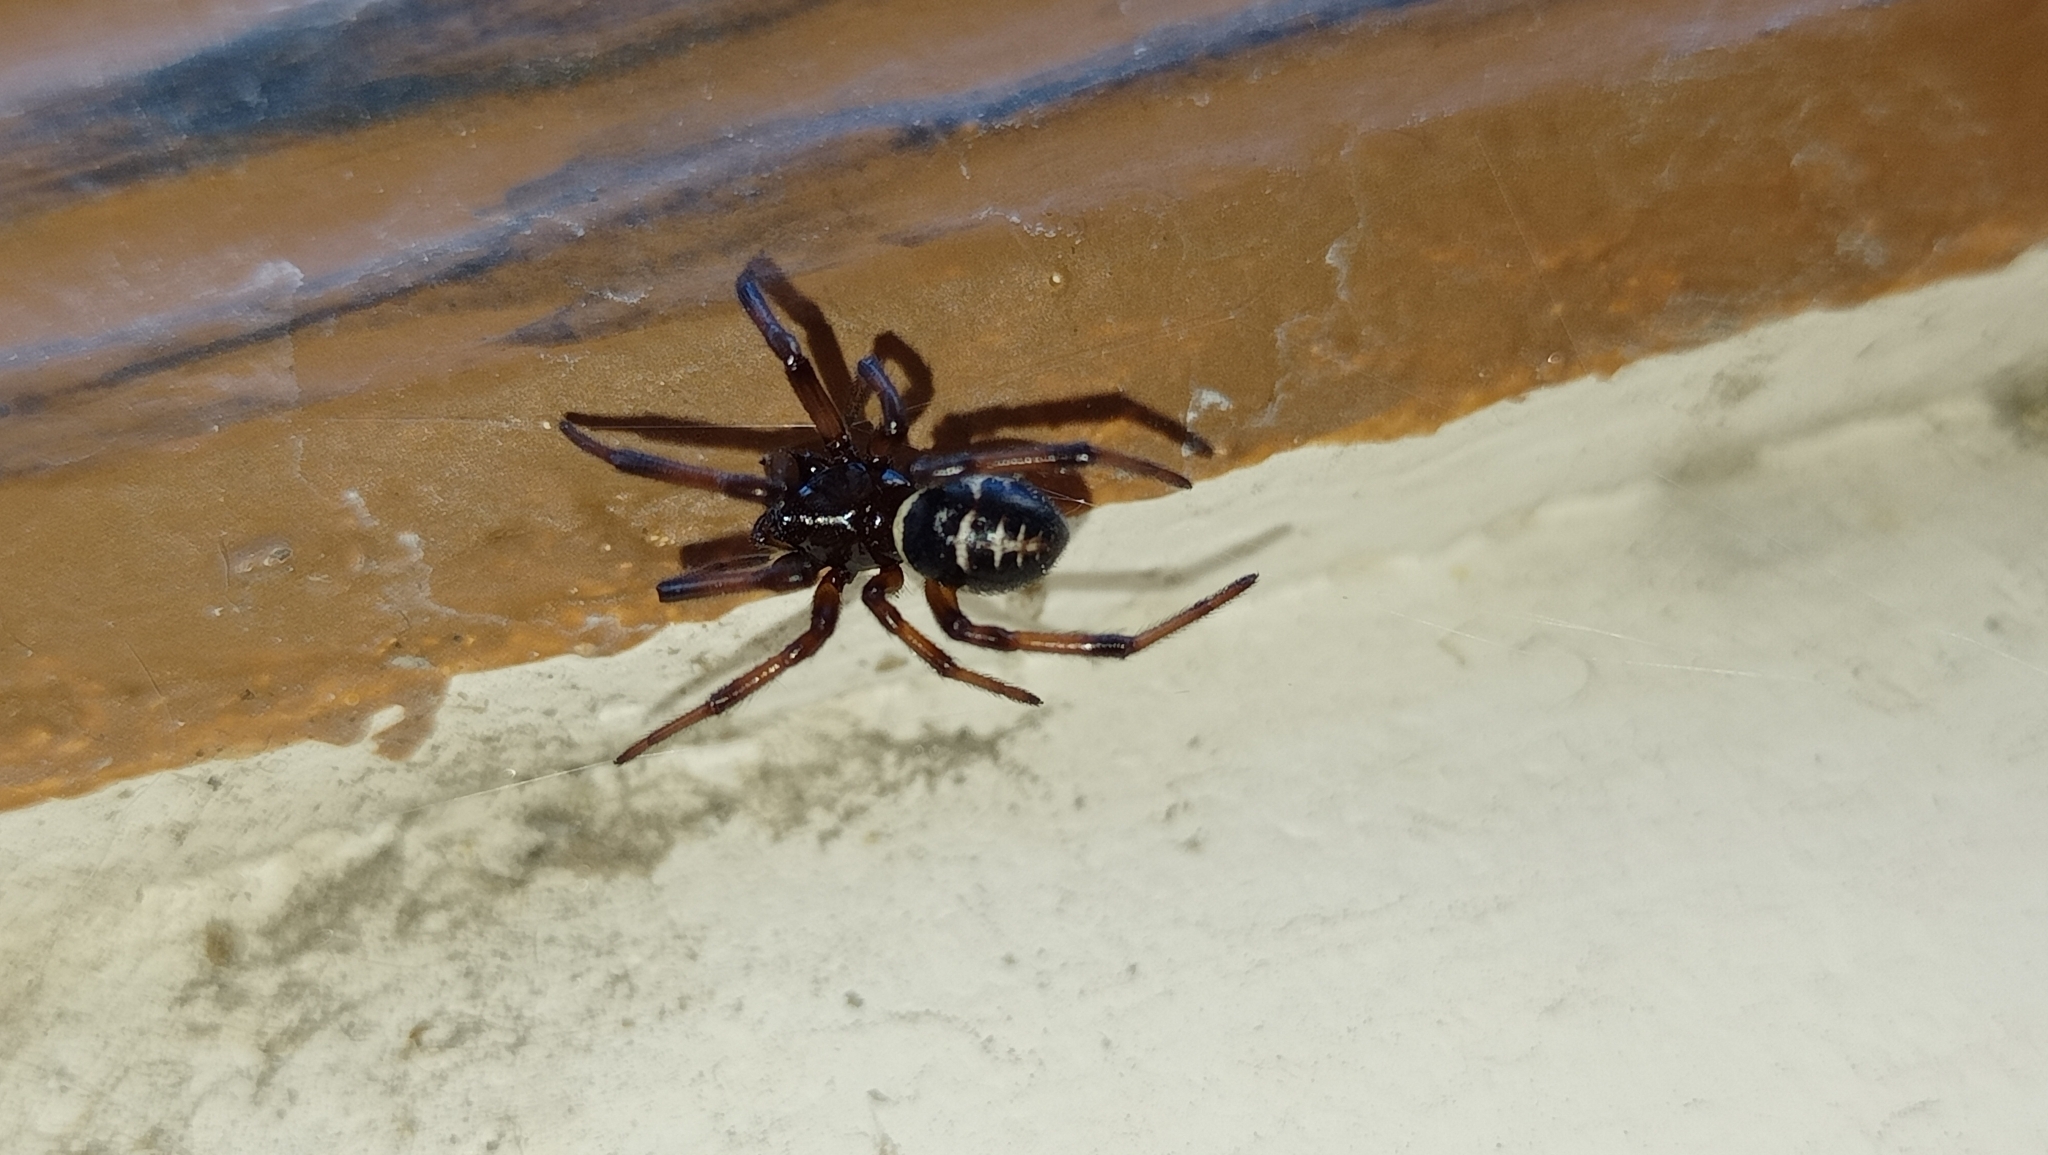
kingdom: Animalia
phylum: Arthropoda
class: Arachnida
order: Araneae
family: Theridiidae
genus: Steatoda
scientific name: Steatoda paykulliana
